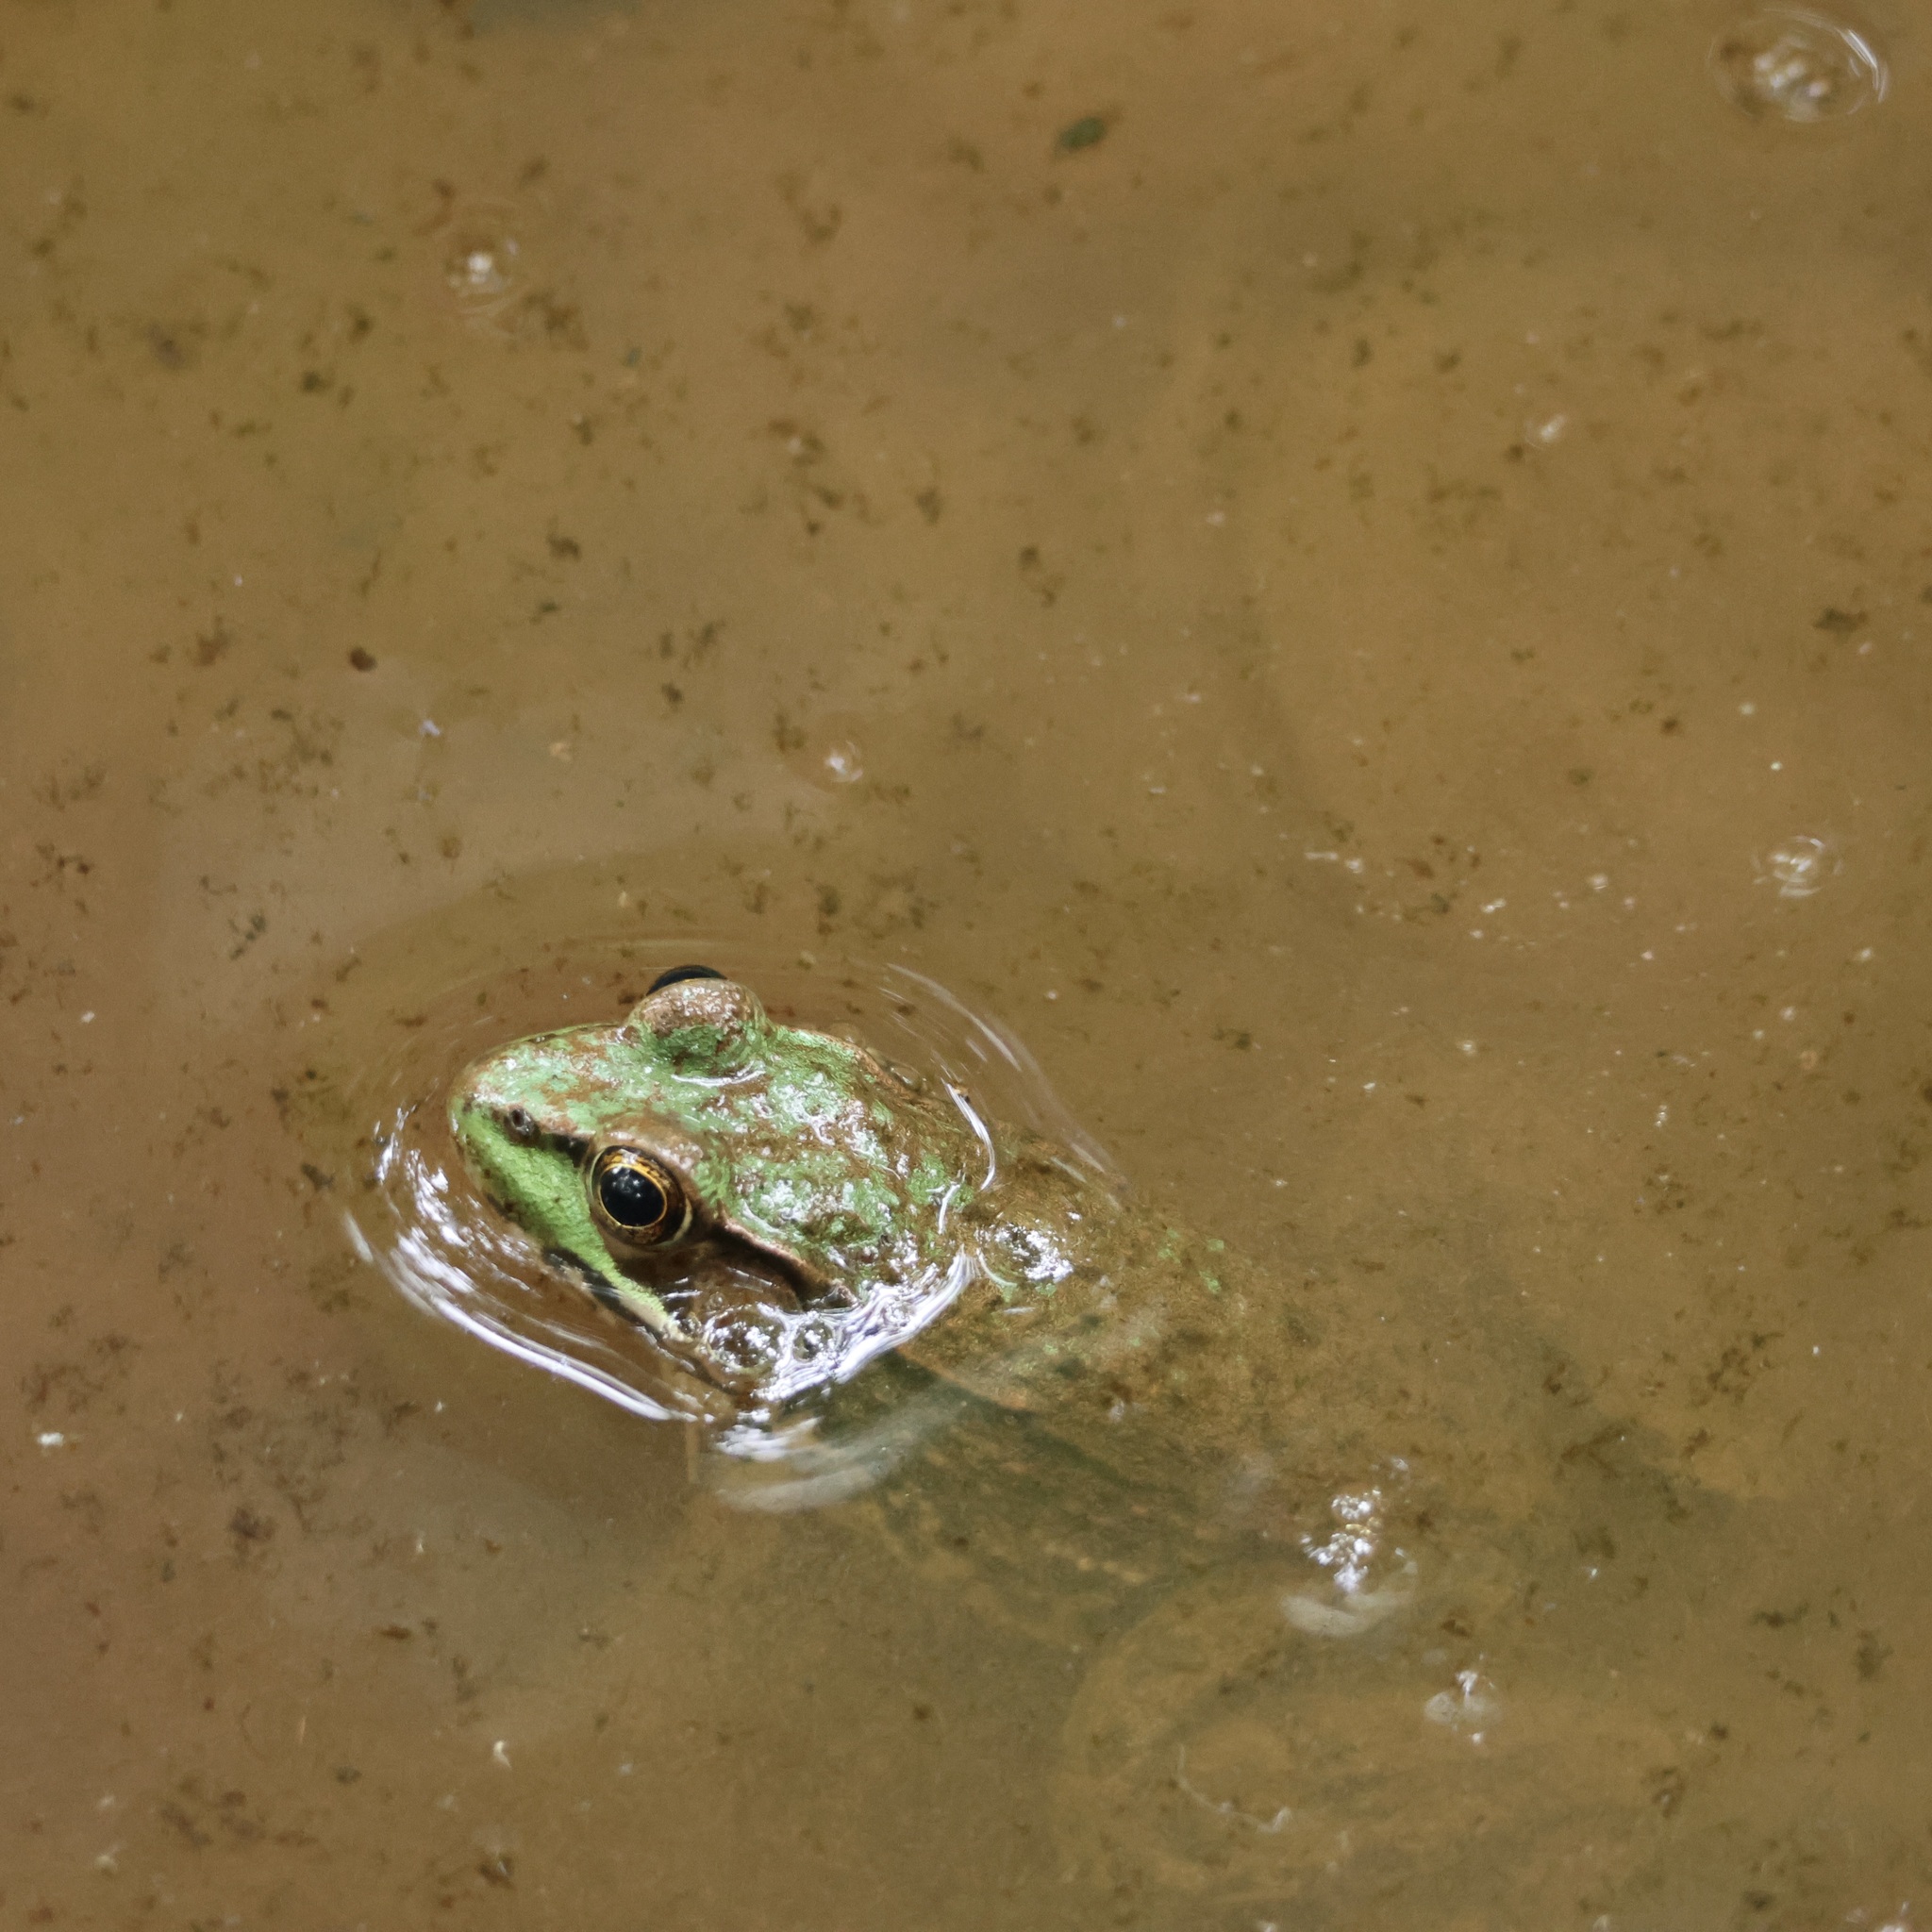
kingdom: Animalia
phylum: Chordata
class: Amphibia
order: Anura
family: Ranidae
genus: Lithobates
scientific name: Lithobates clamitans
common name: Green frog
